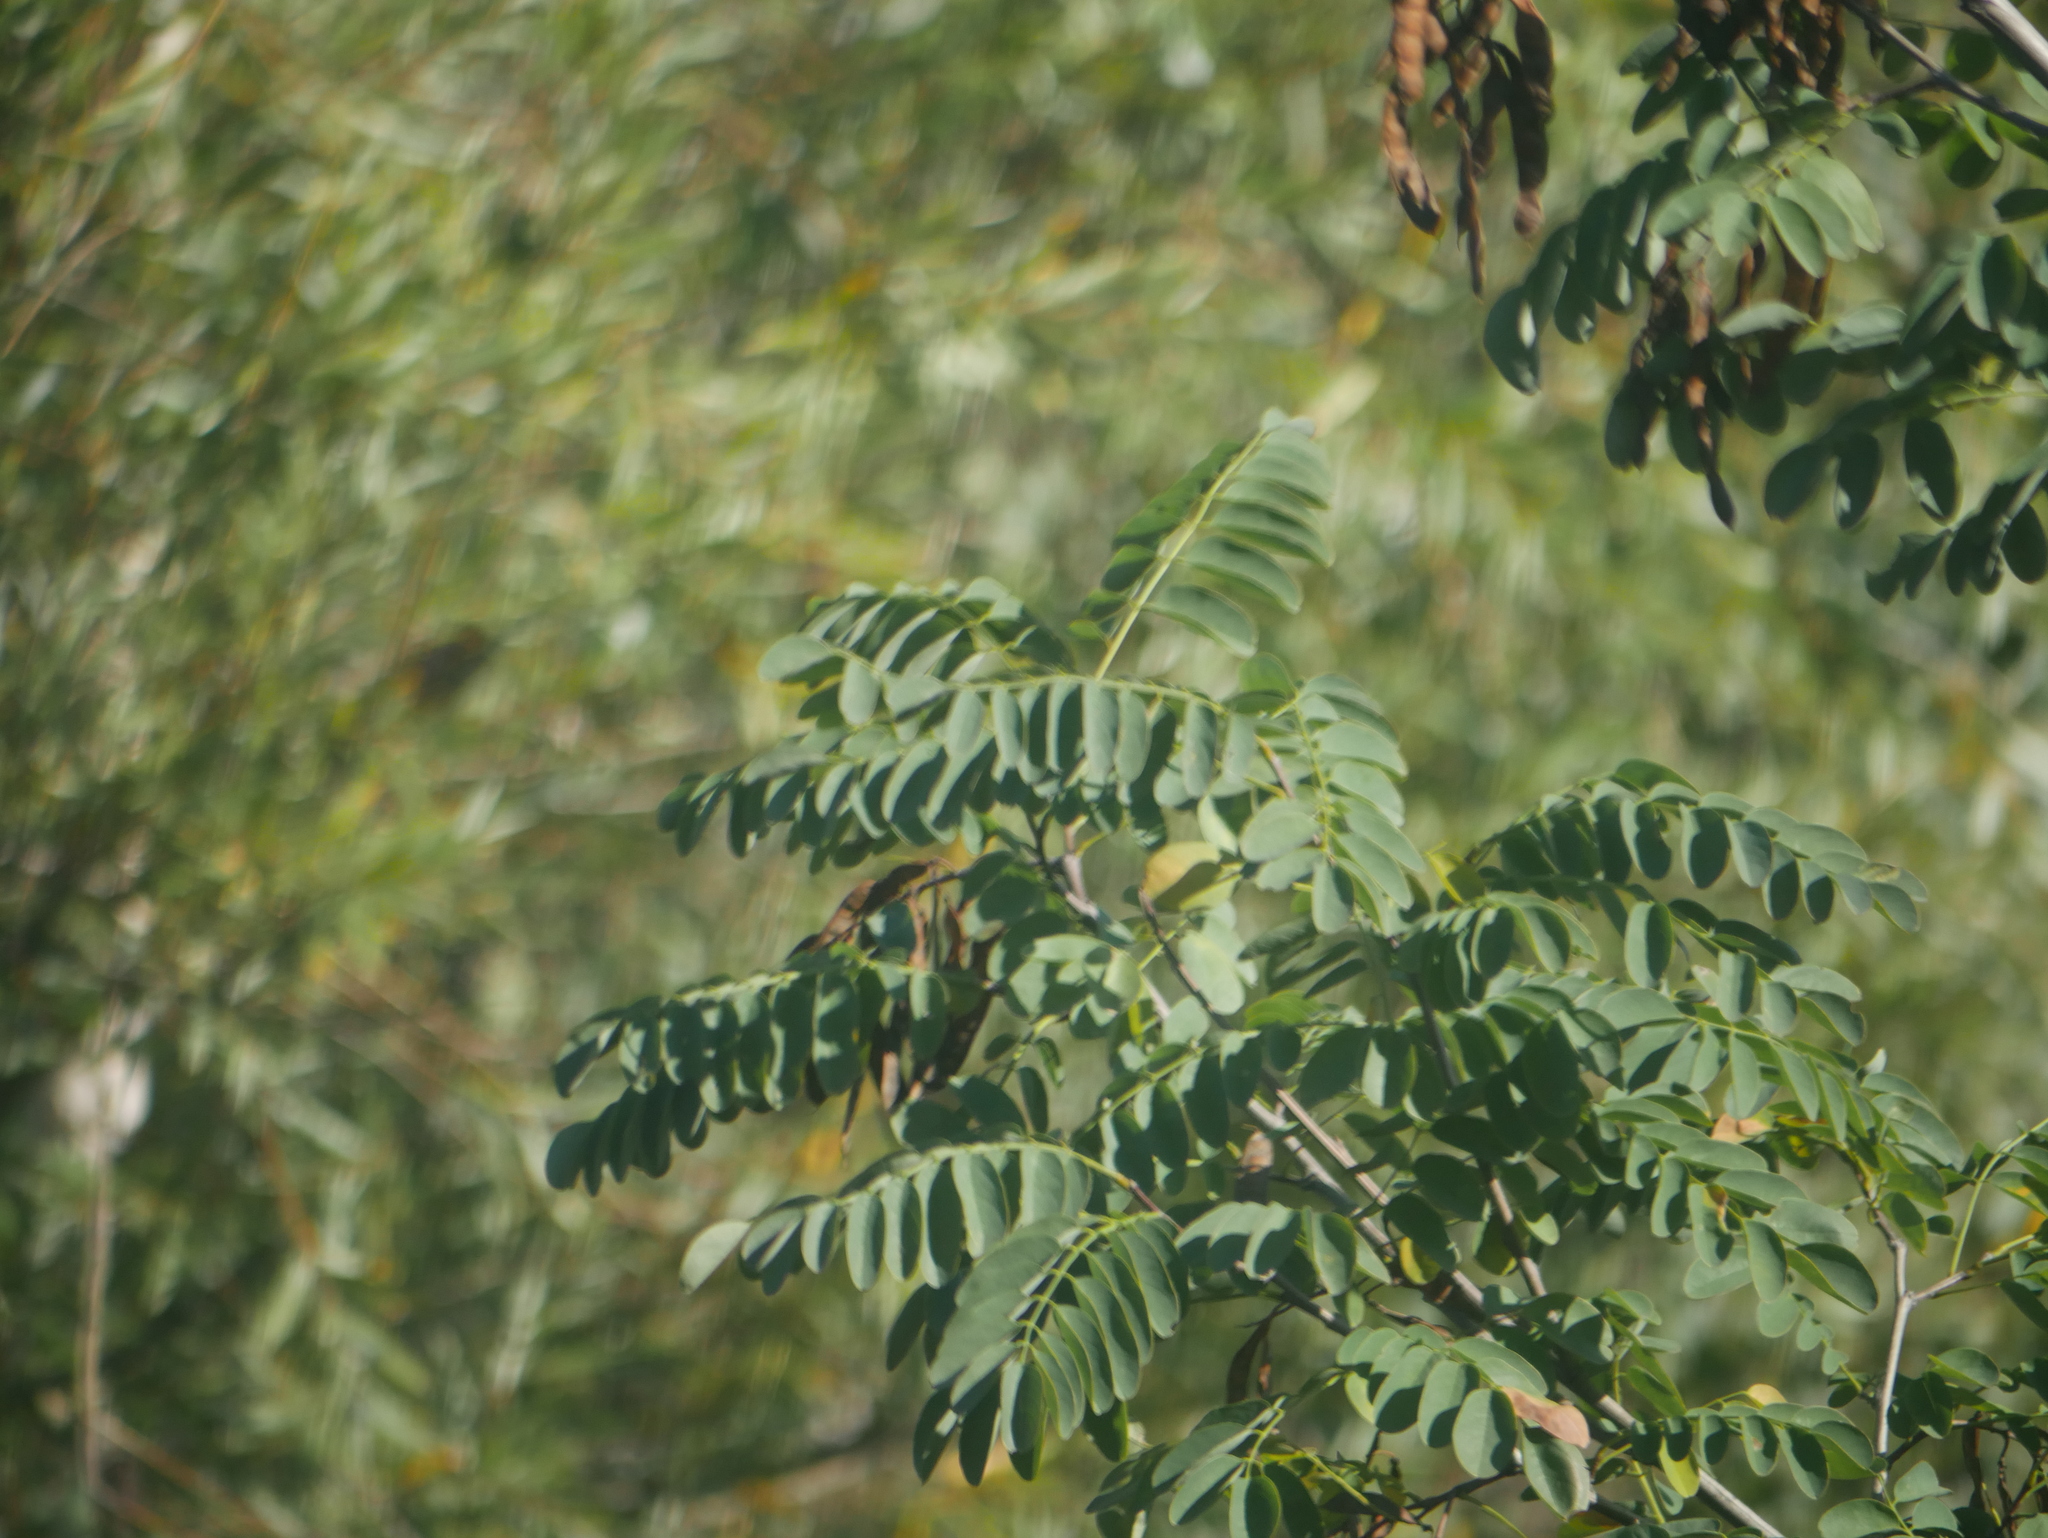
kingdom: Plantae
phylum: Tracheophyta
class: Magnoliopsida
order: Fabales
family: Fabaceae
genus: Robinia
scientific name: Robinia pseudoacacia
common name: Black locust
